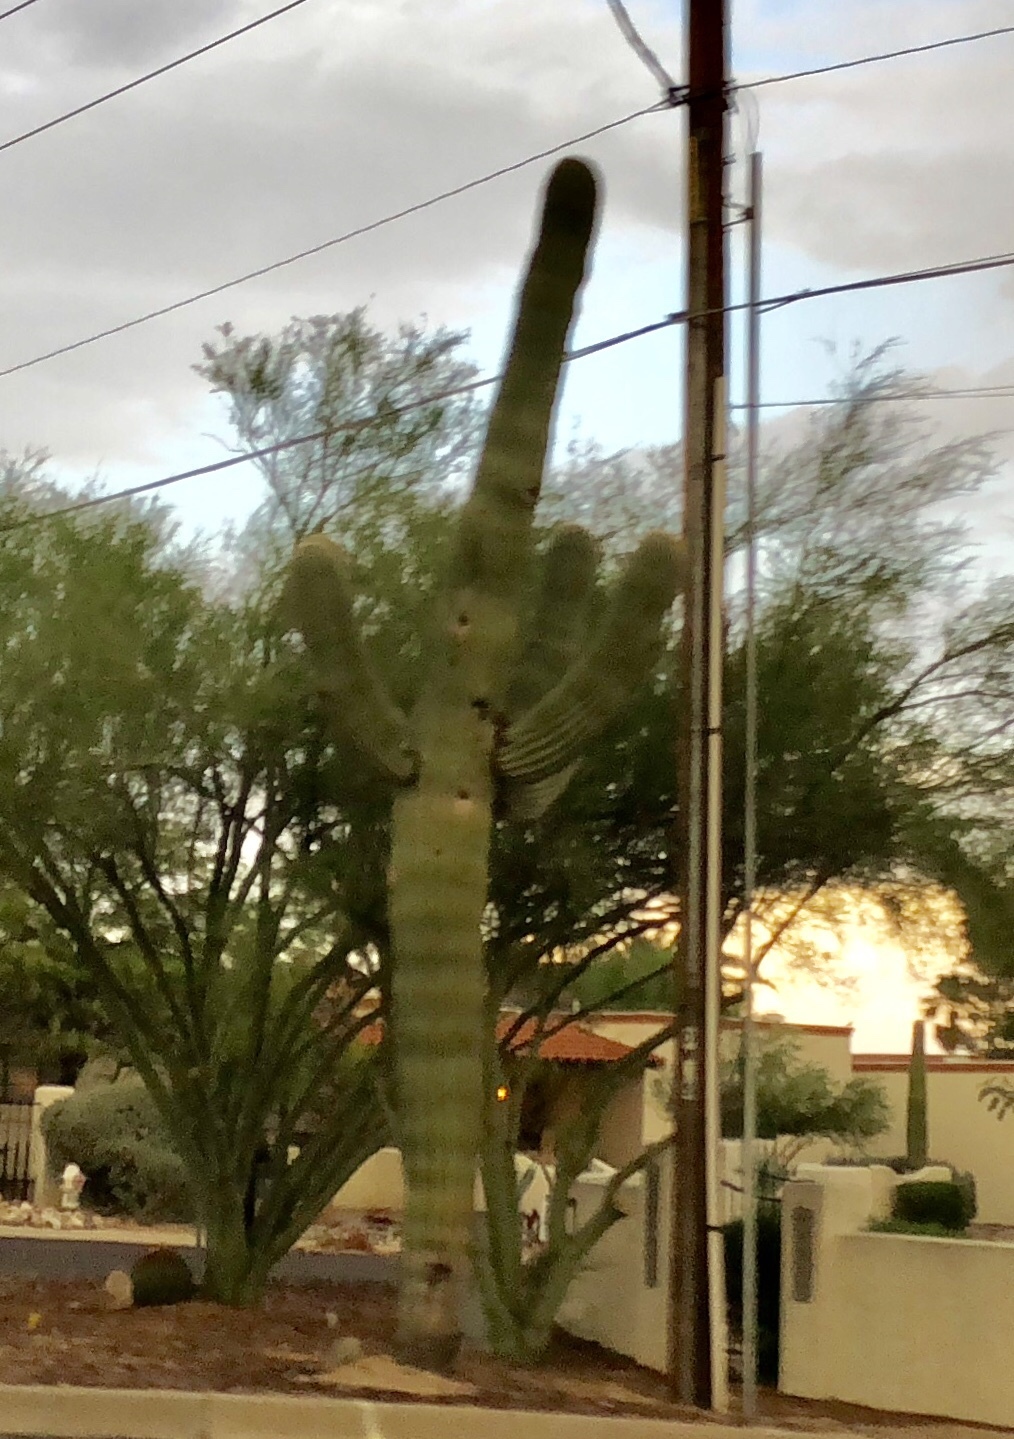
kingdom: Plantae
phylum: Tracheophyta
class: Magnoliopsida
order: Caryophyllales
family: Cactaceae
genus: Carnegiea
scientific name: Carnegiea gigantea
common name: Saguaro
